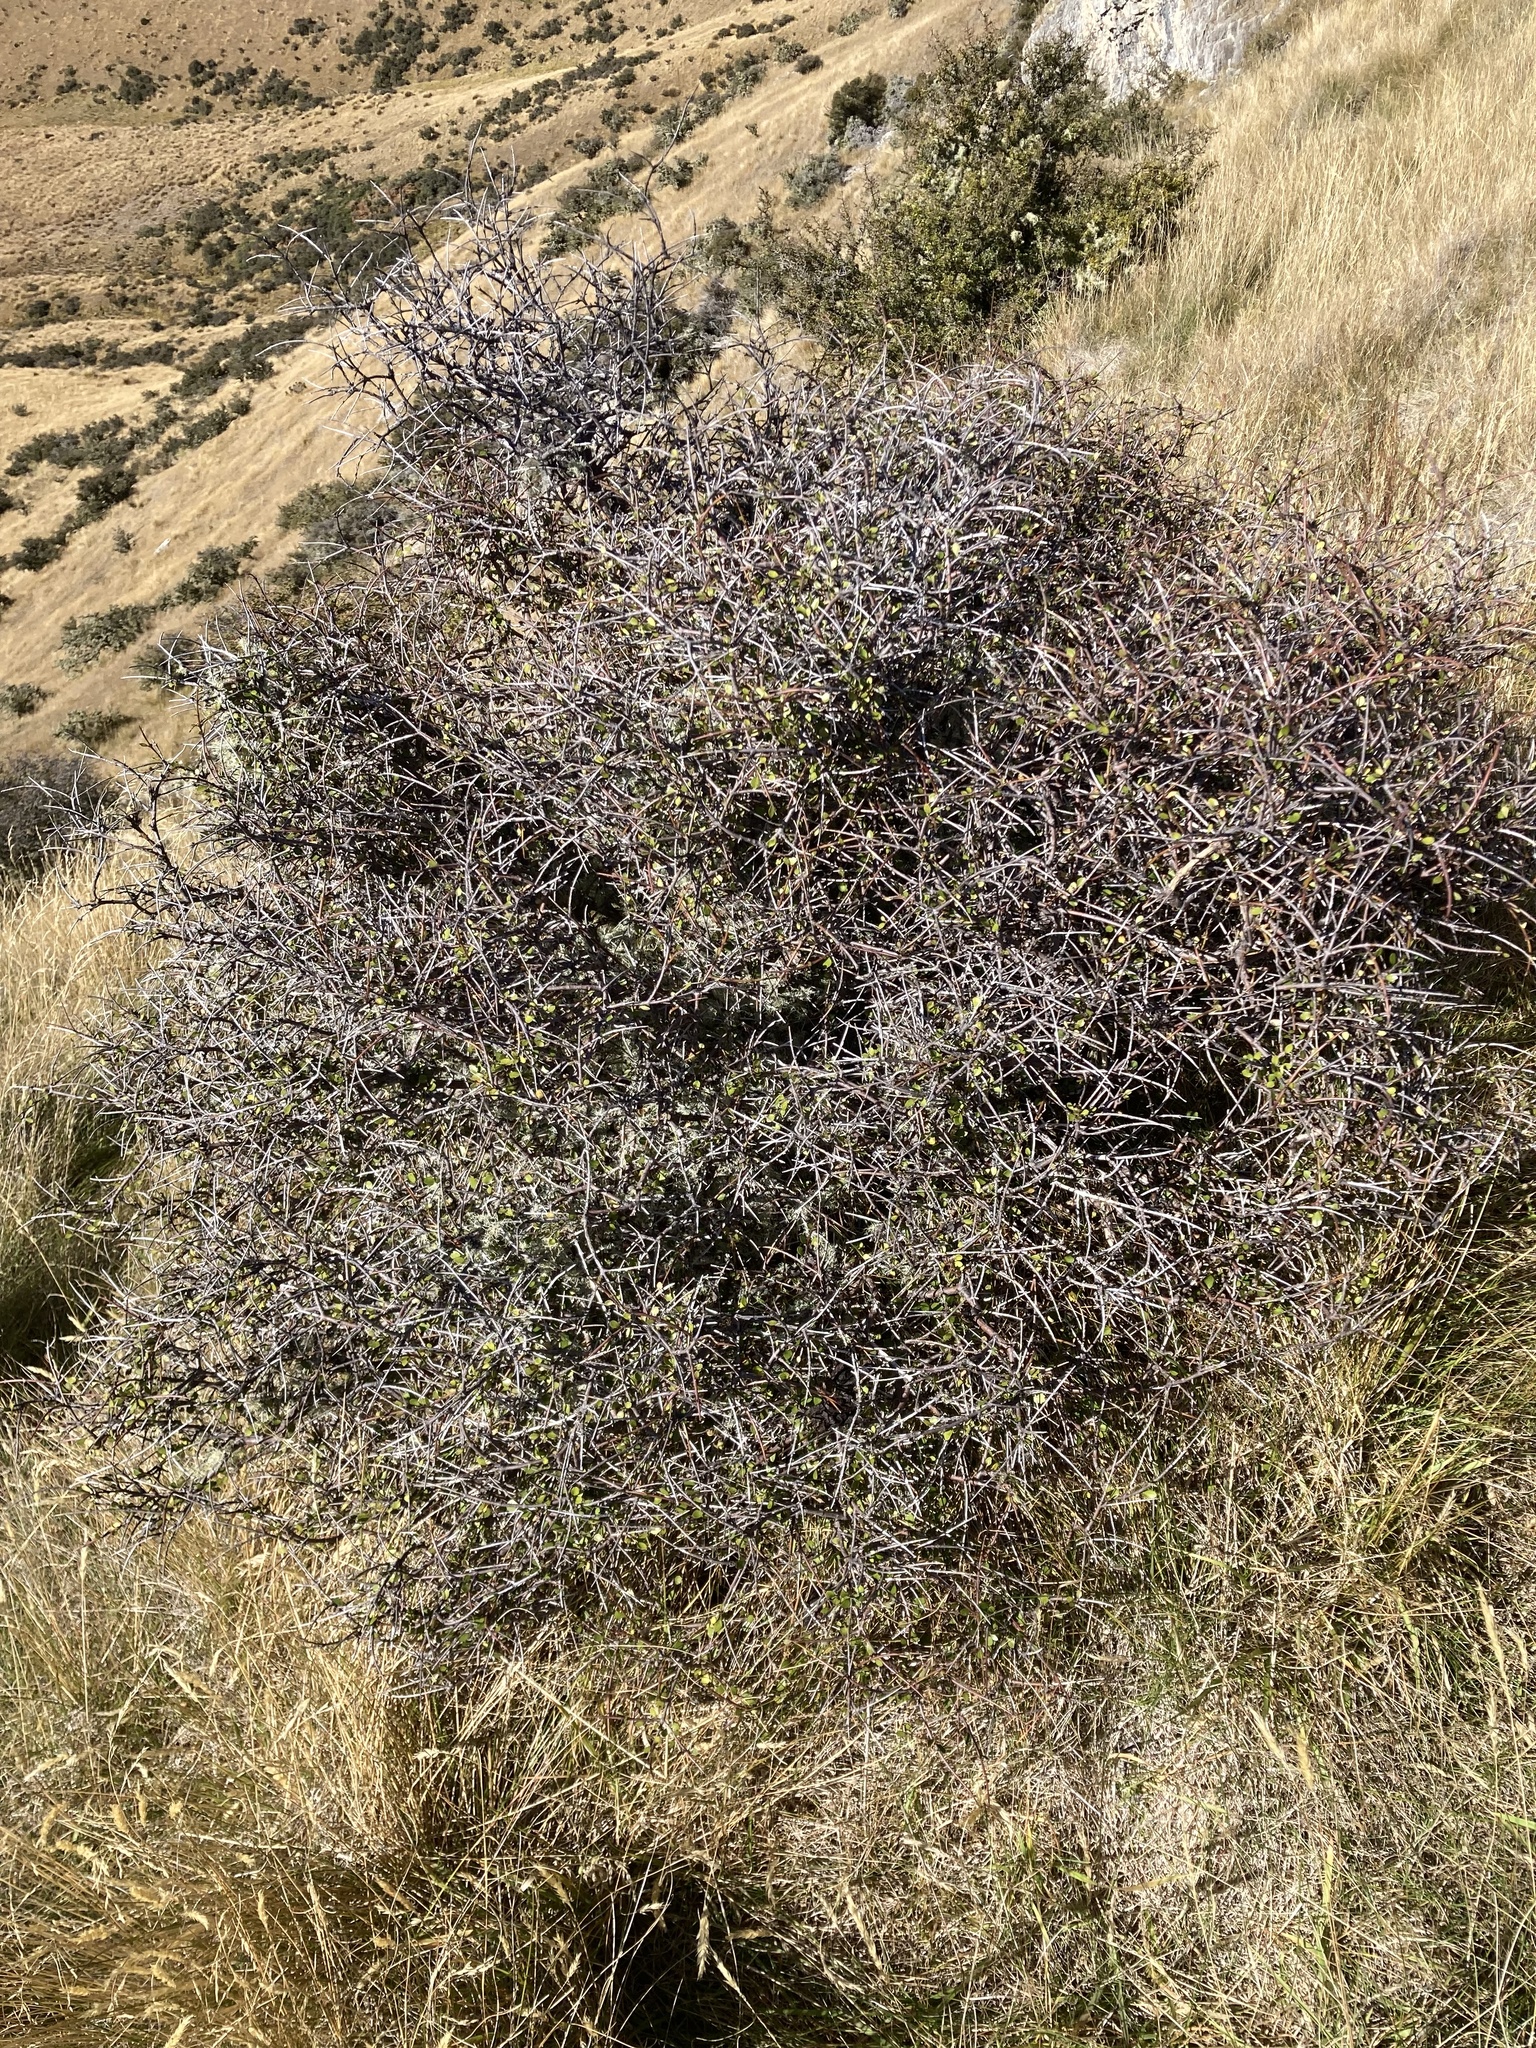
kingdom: Plantae
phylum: Tracheophyta
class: Magnoliopsida
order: Oxalidales
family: Elaeocarpaceae
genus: Aristotelia
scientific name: Aristotelia fruticosa
